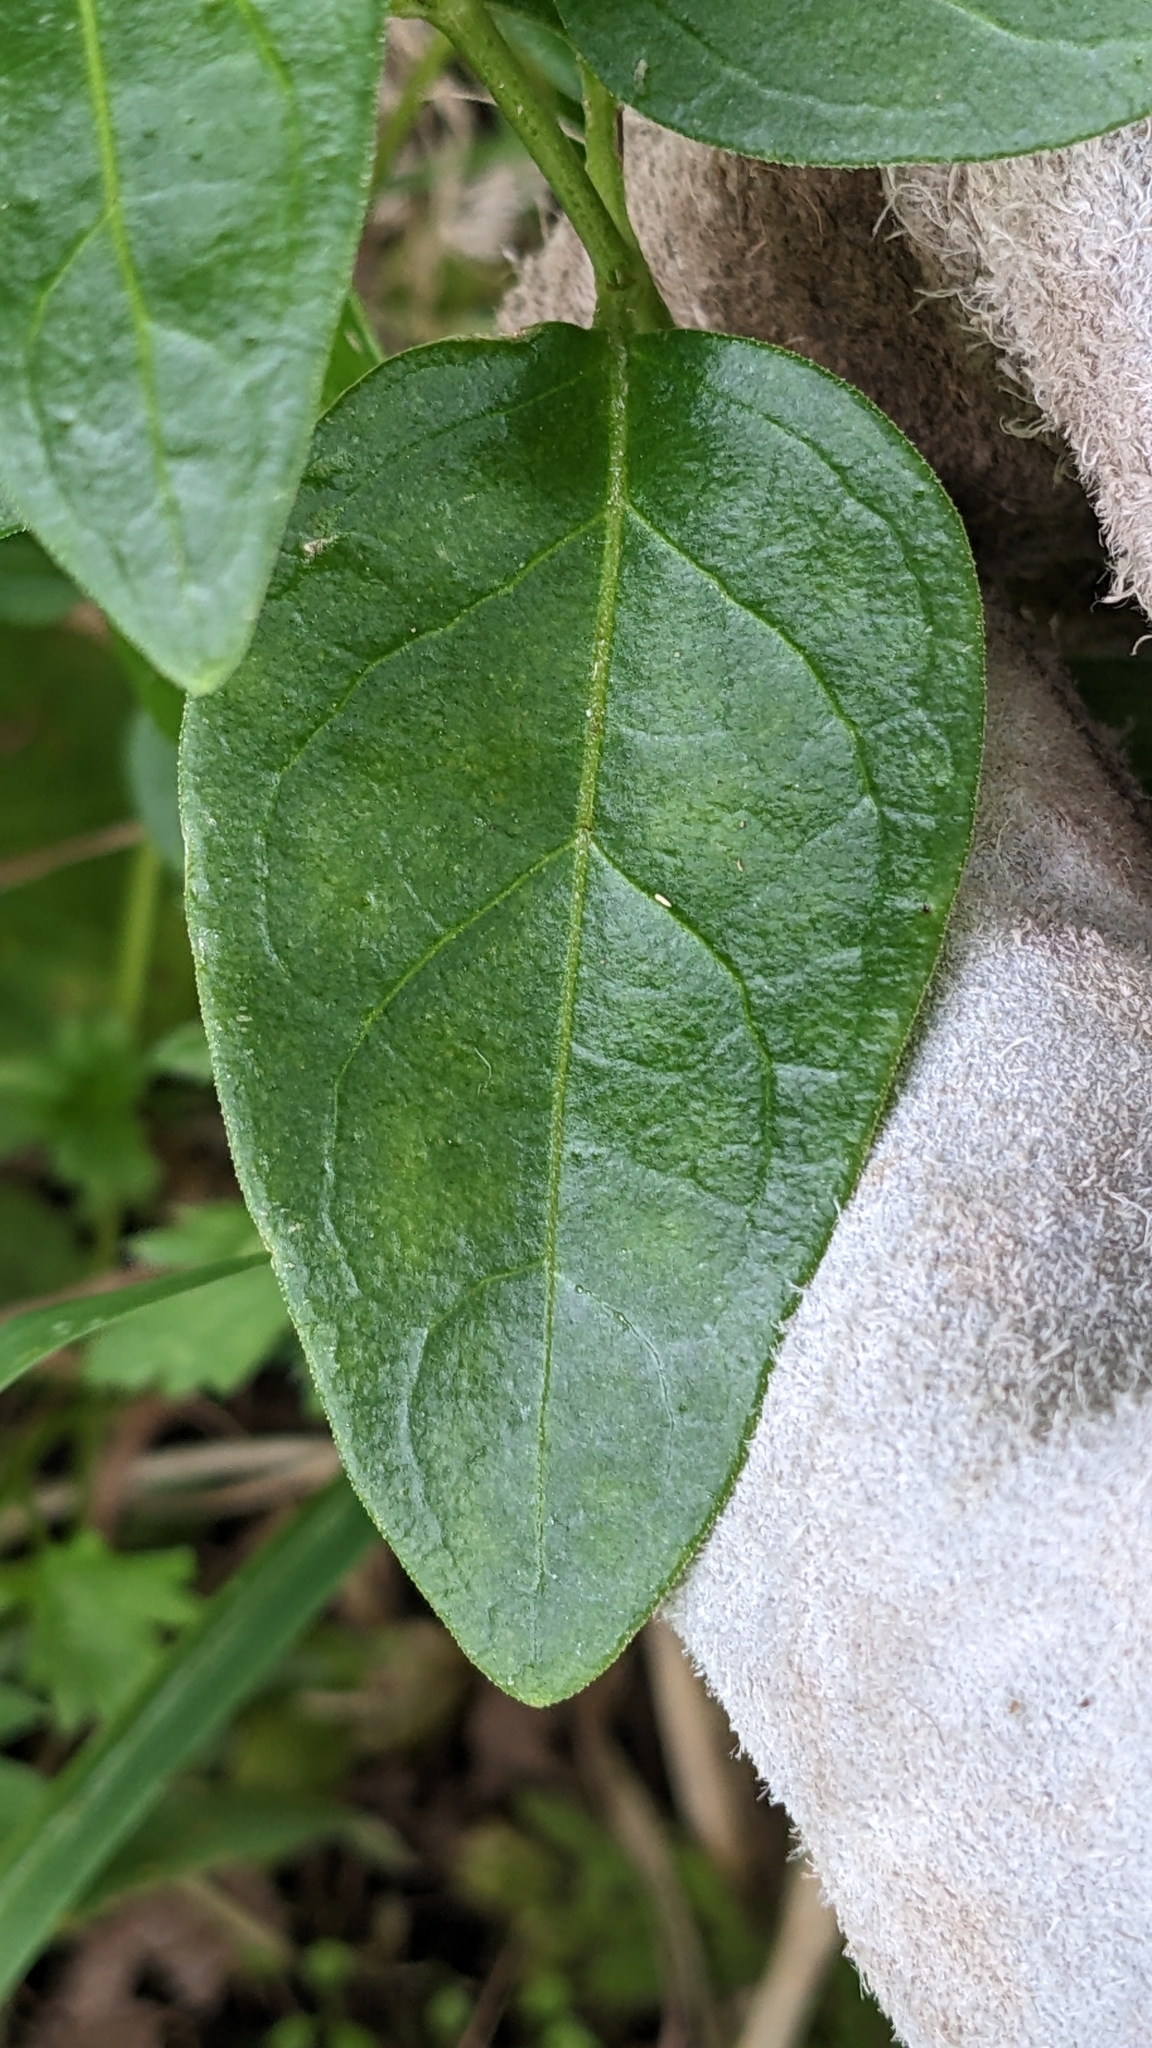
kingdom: Plantae
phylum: Tracheophyta
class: Magnoliopsida
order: Gentianales
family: Apocynaceae
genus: Vinca
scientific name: Vinca major
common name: Greater periwinkle
